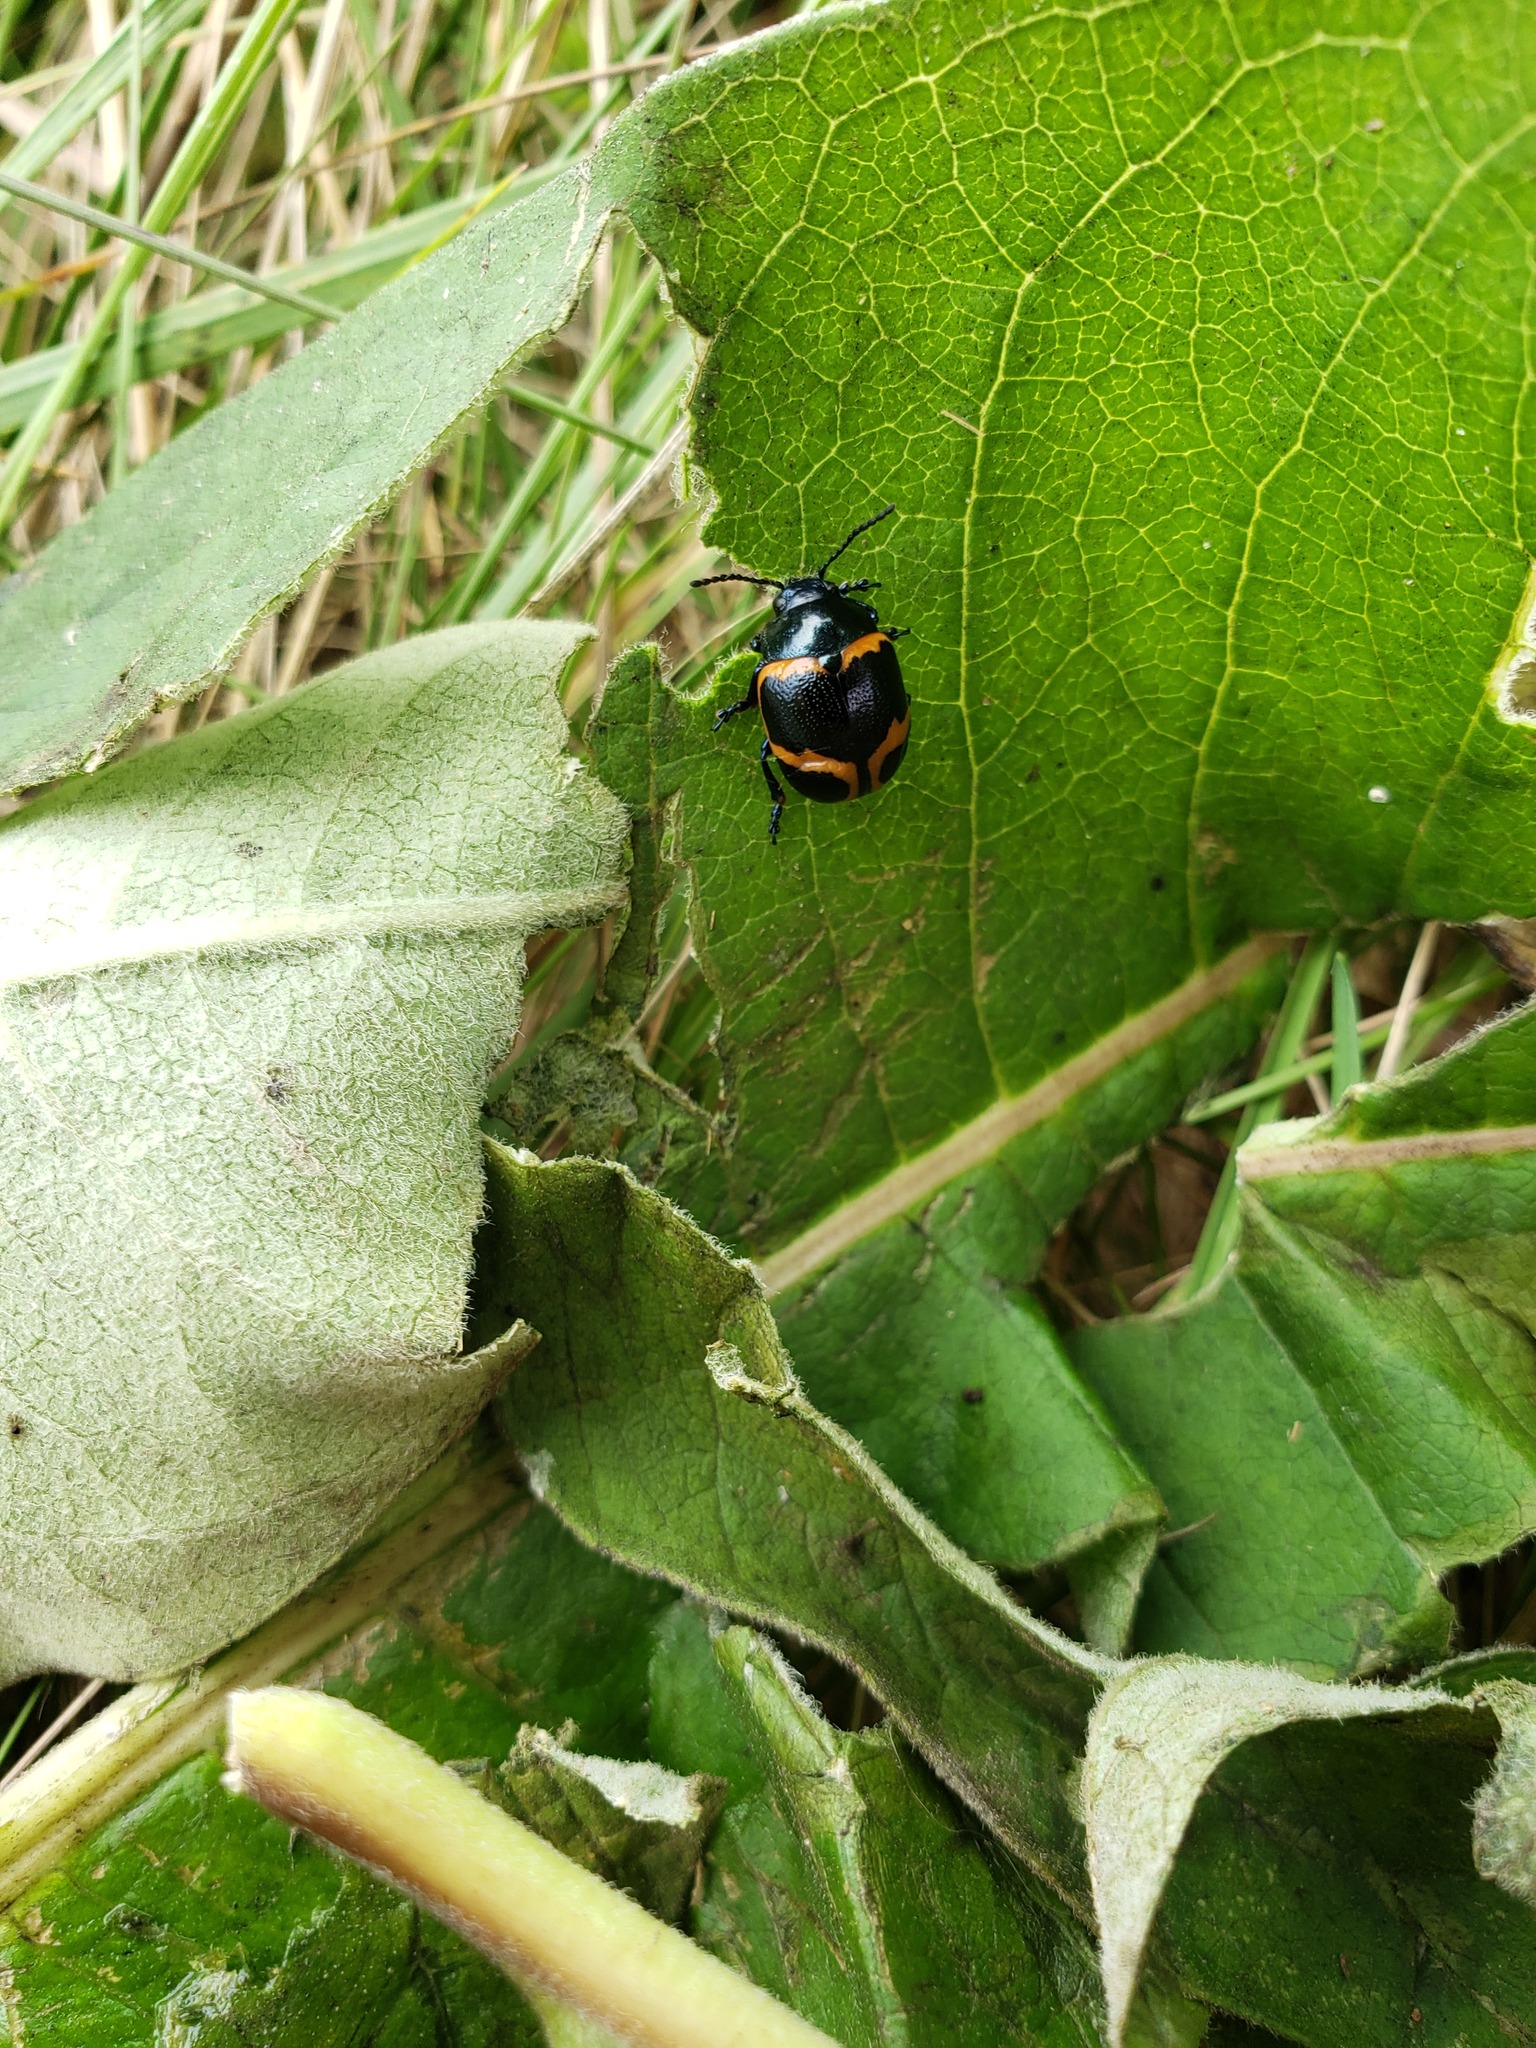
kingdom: Animalia
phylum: Arthropoda
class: Insecta
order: Coleoptera
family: Chrysomelidae
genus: Labidomera
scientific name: Labidomera clivicollis
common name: Swamp milkweed leaf beetle
